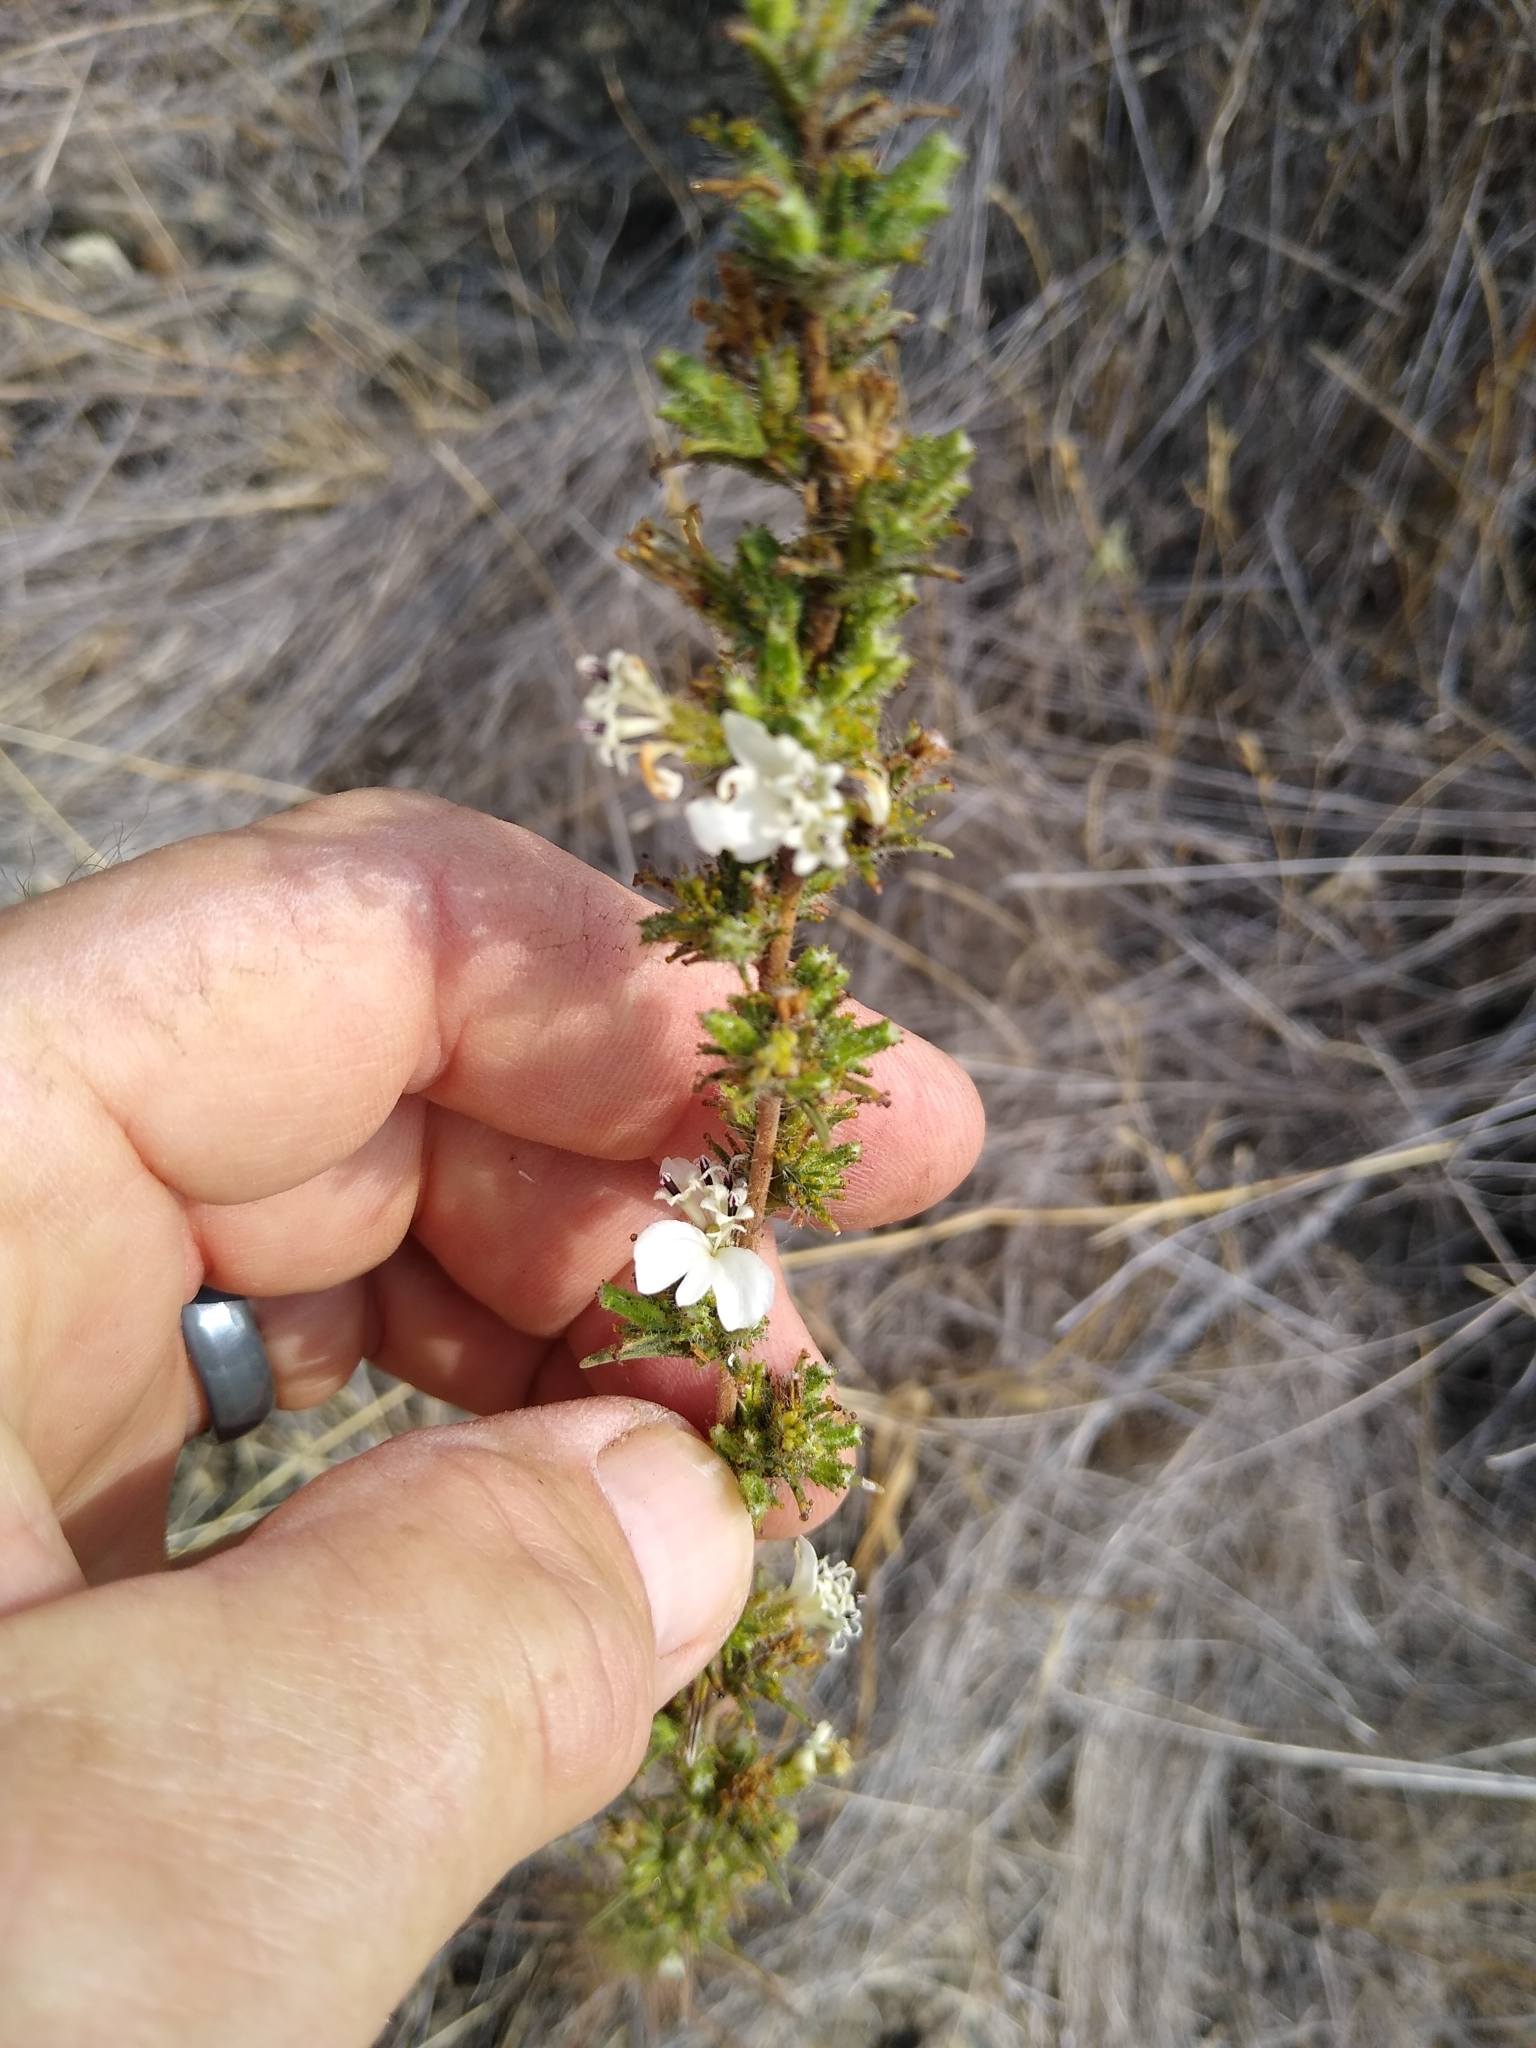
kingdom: Plantae
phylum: Tracheophyta
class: Magnoliopsida
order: Asterales
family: Asteraceae
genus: Calycadenia
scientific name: Calycadenia multiglandulosa
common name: Sticky calycadenia
